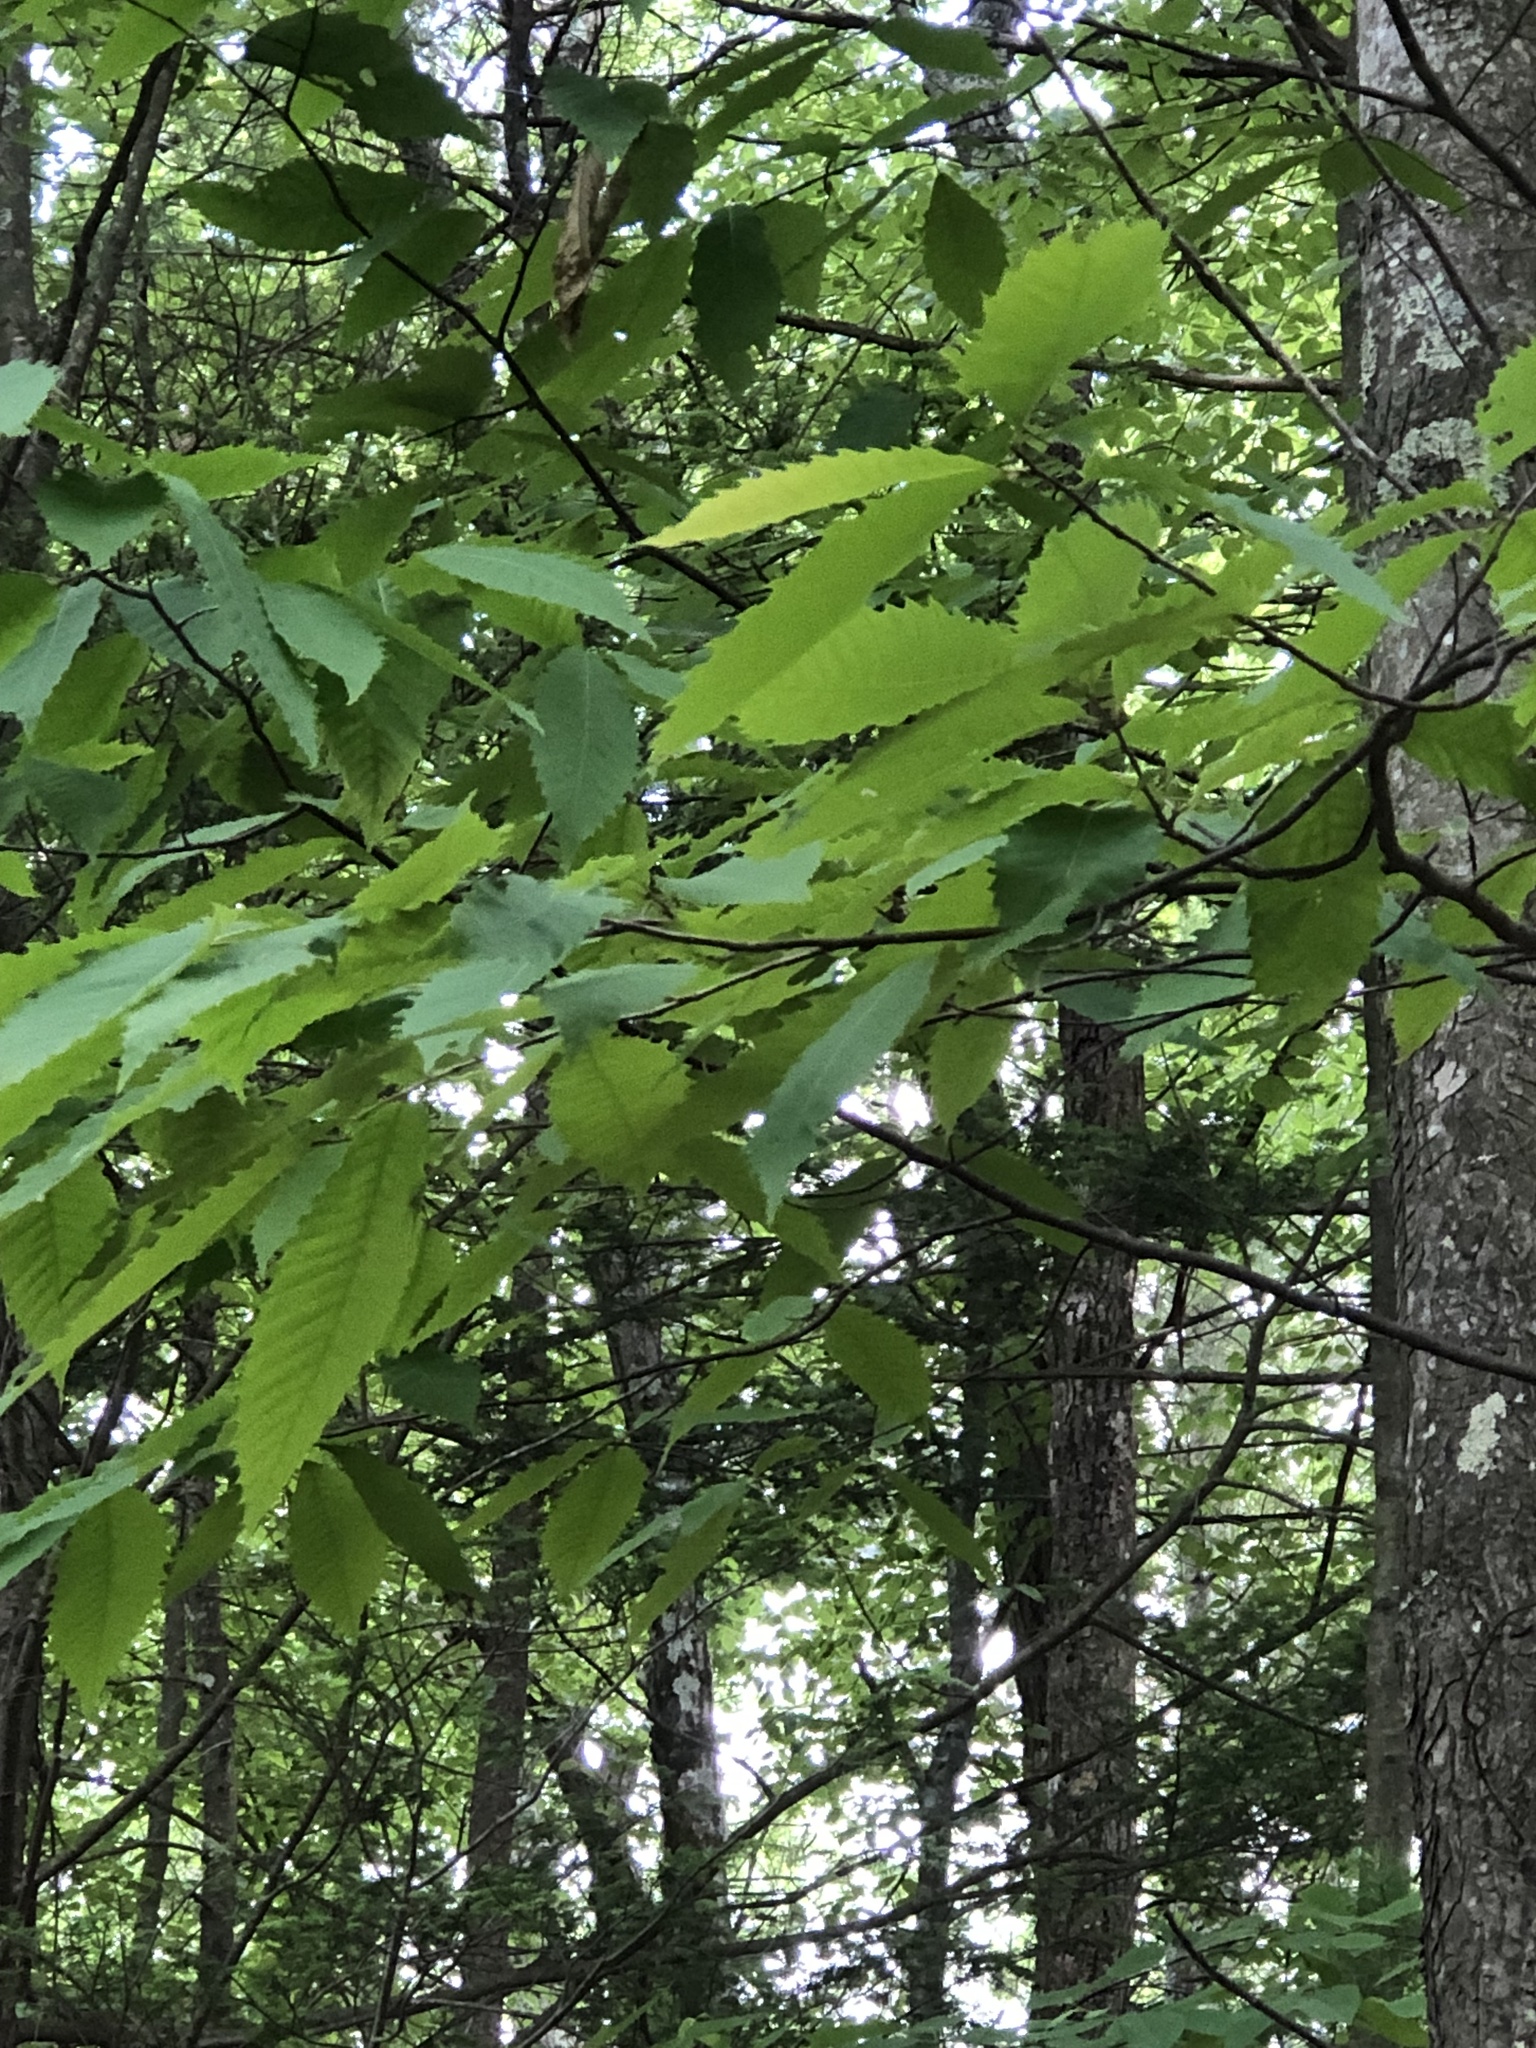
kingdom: Plantae
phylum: Tracheophyta
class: Magnoliopsida
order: Fagales
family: Fagaceae
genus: Castanea
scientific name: Castanea dentata
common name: American chestnut
